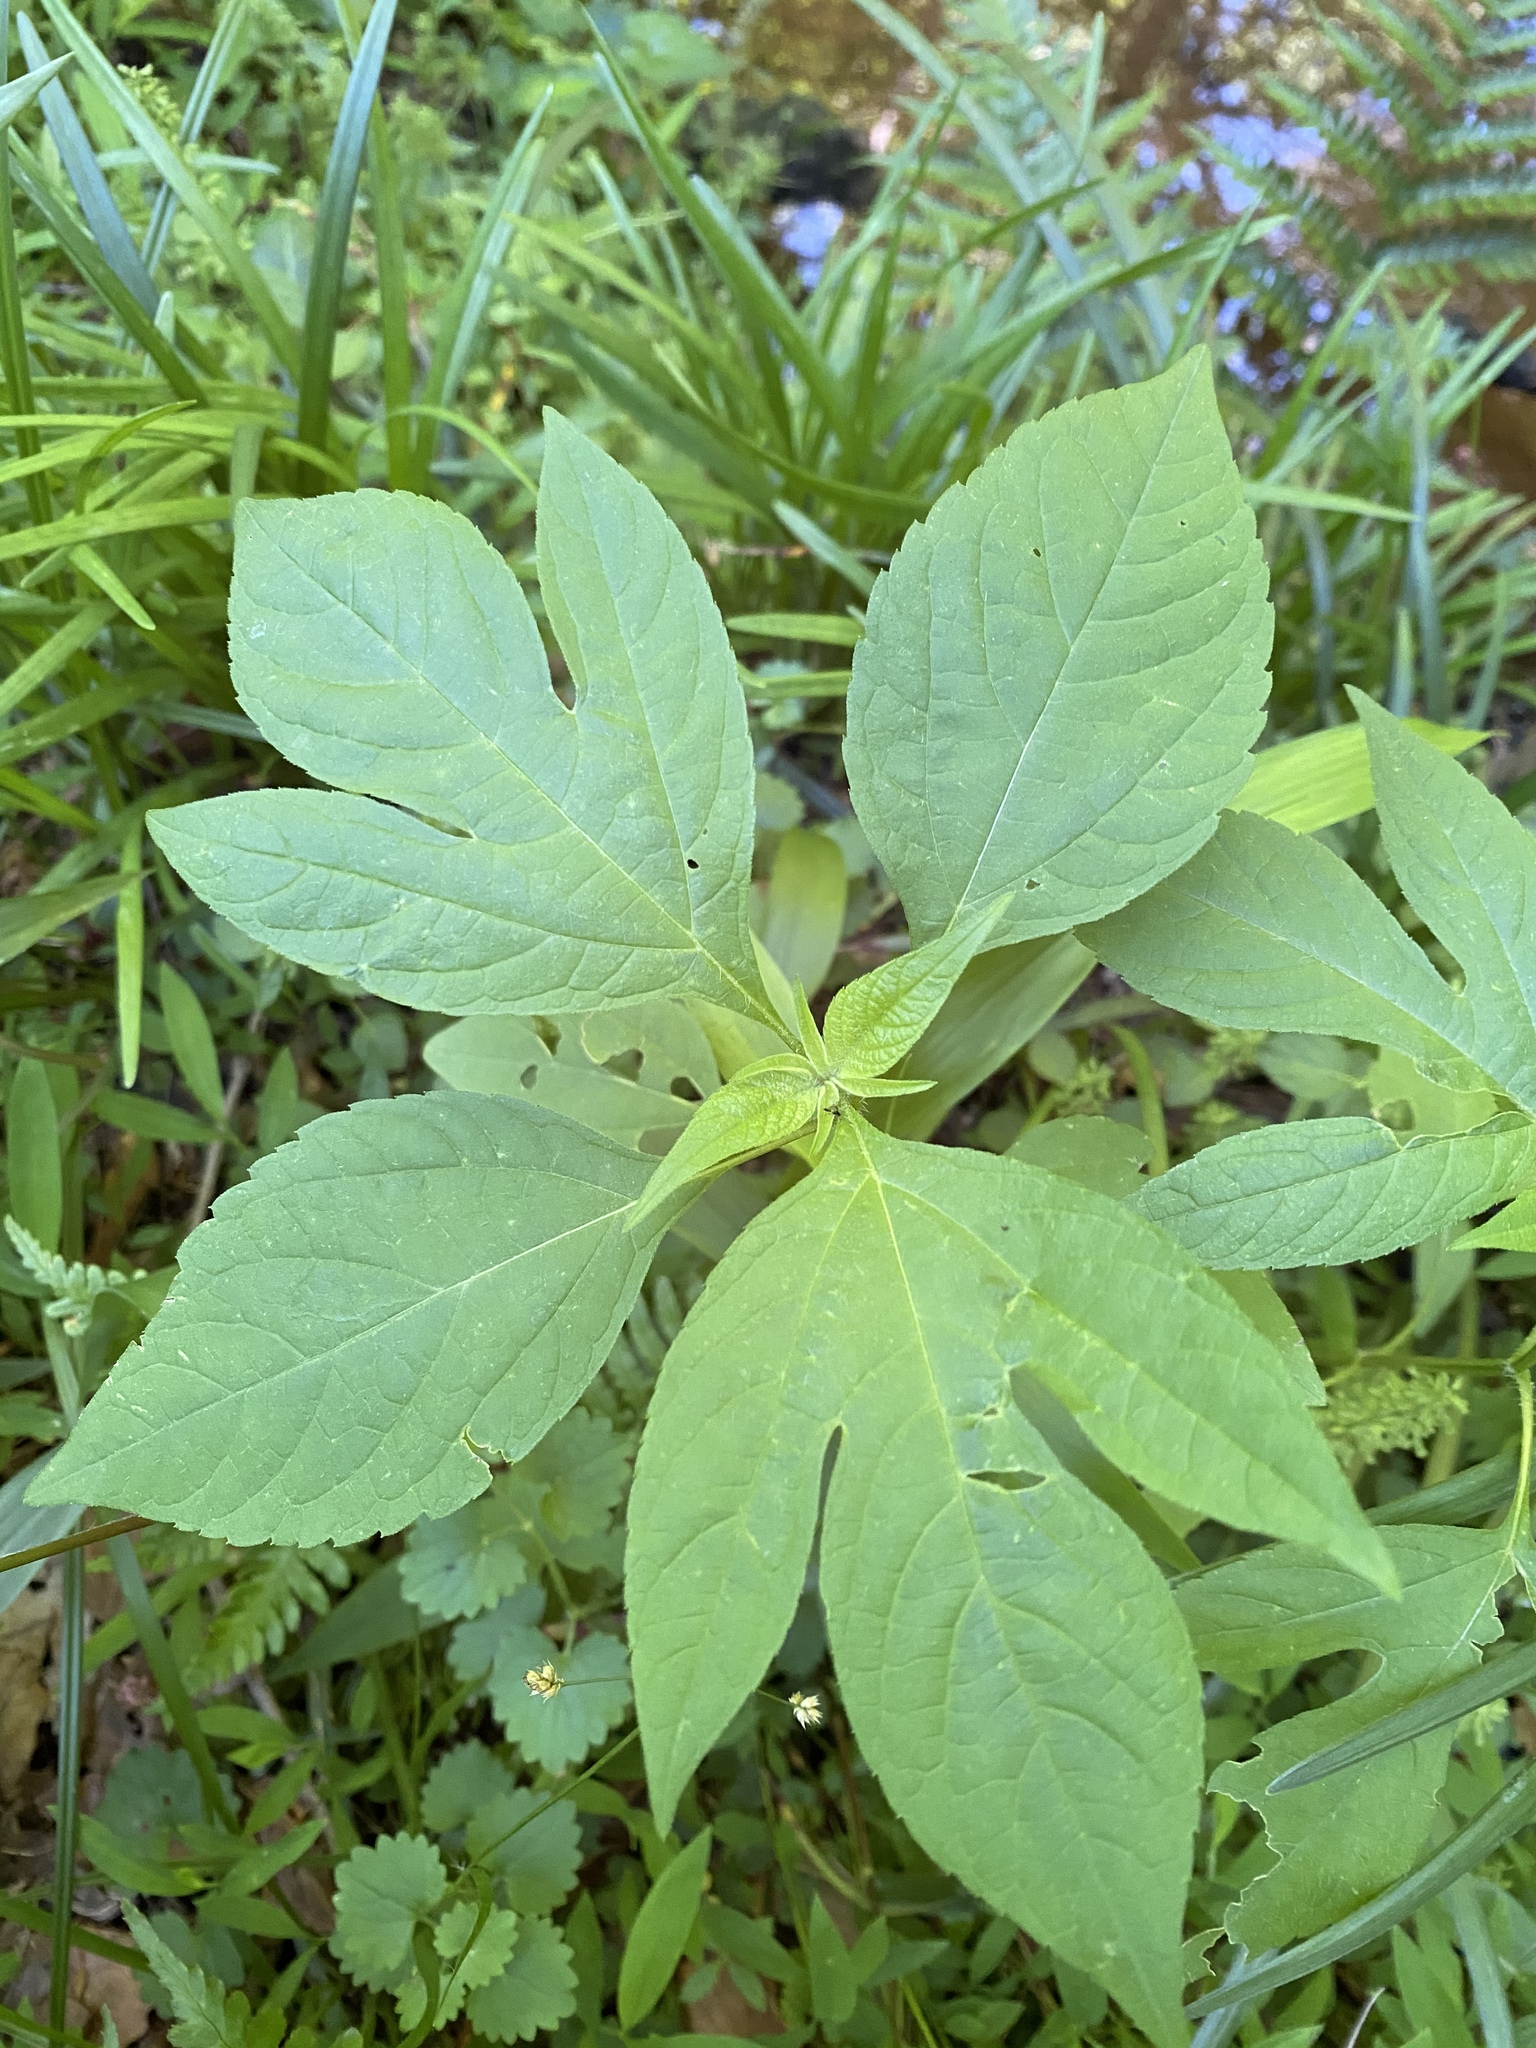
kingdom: Plantae
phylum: Tracheophyta
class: Magnoliopsida
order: Asterales
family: Asteraceae
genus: Ambrosia
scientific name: Ambrosia trifida
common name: Giant ragweed
